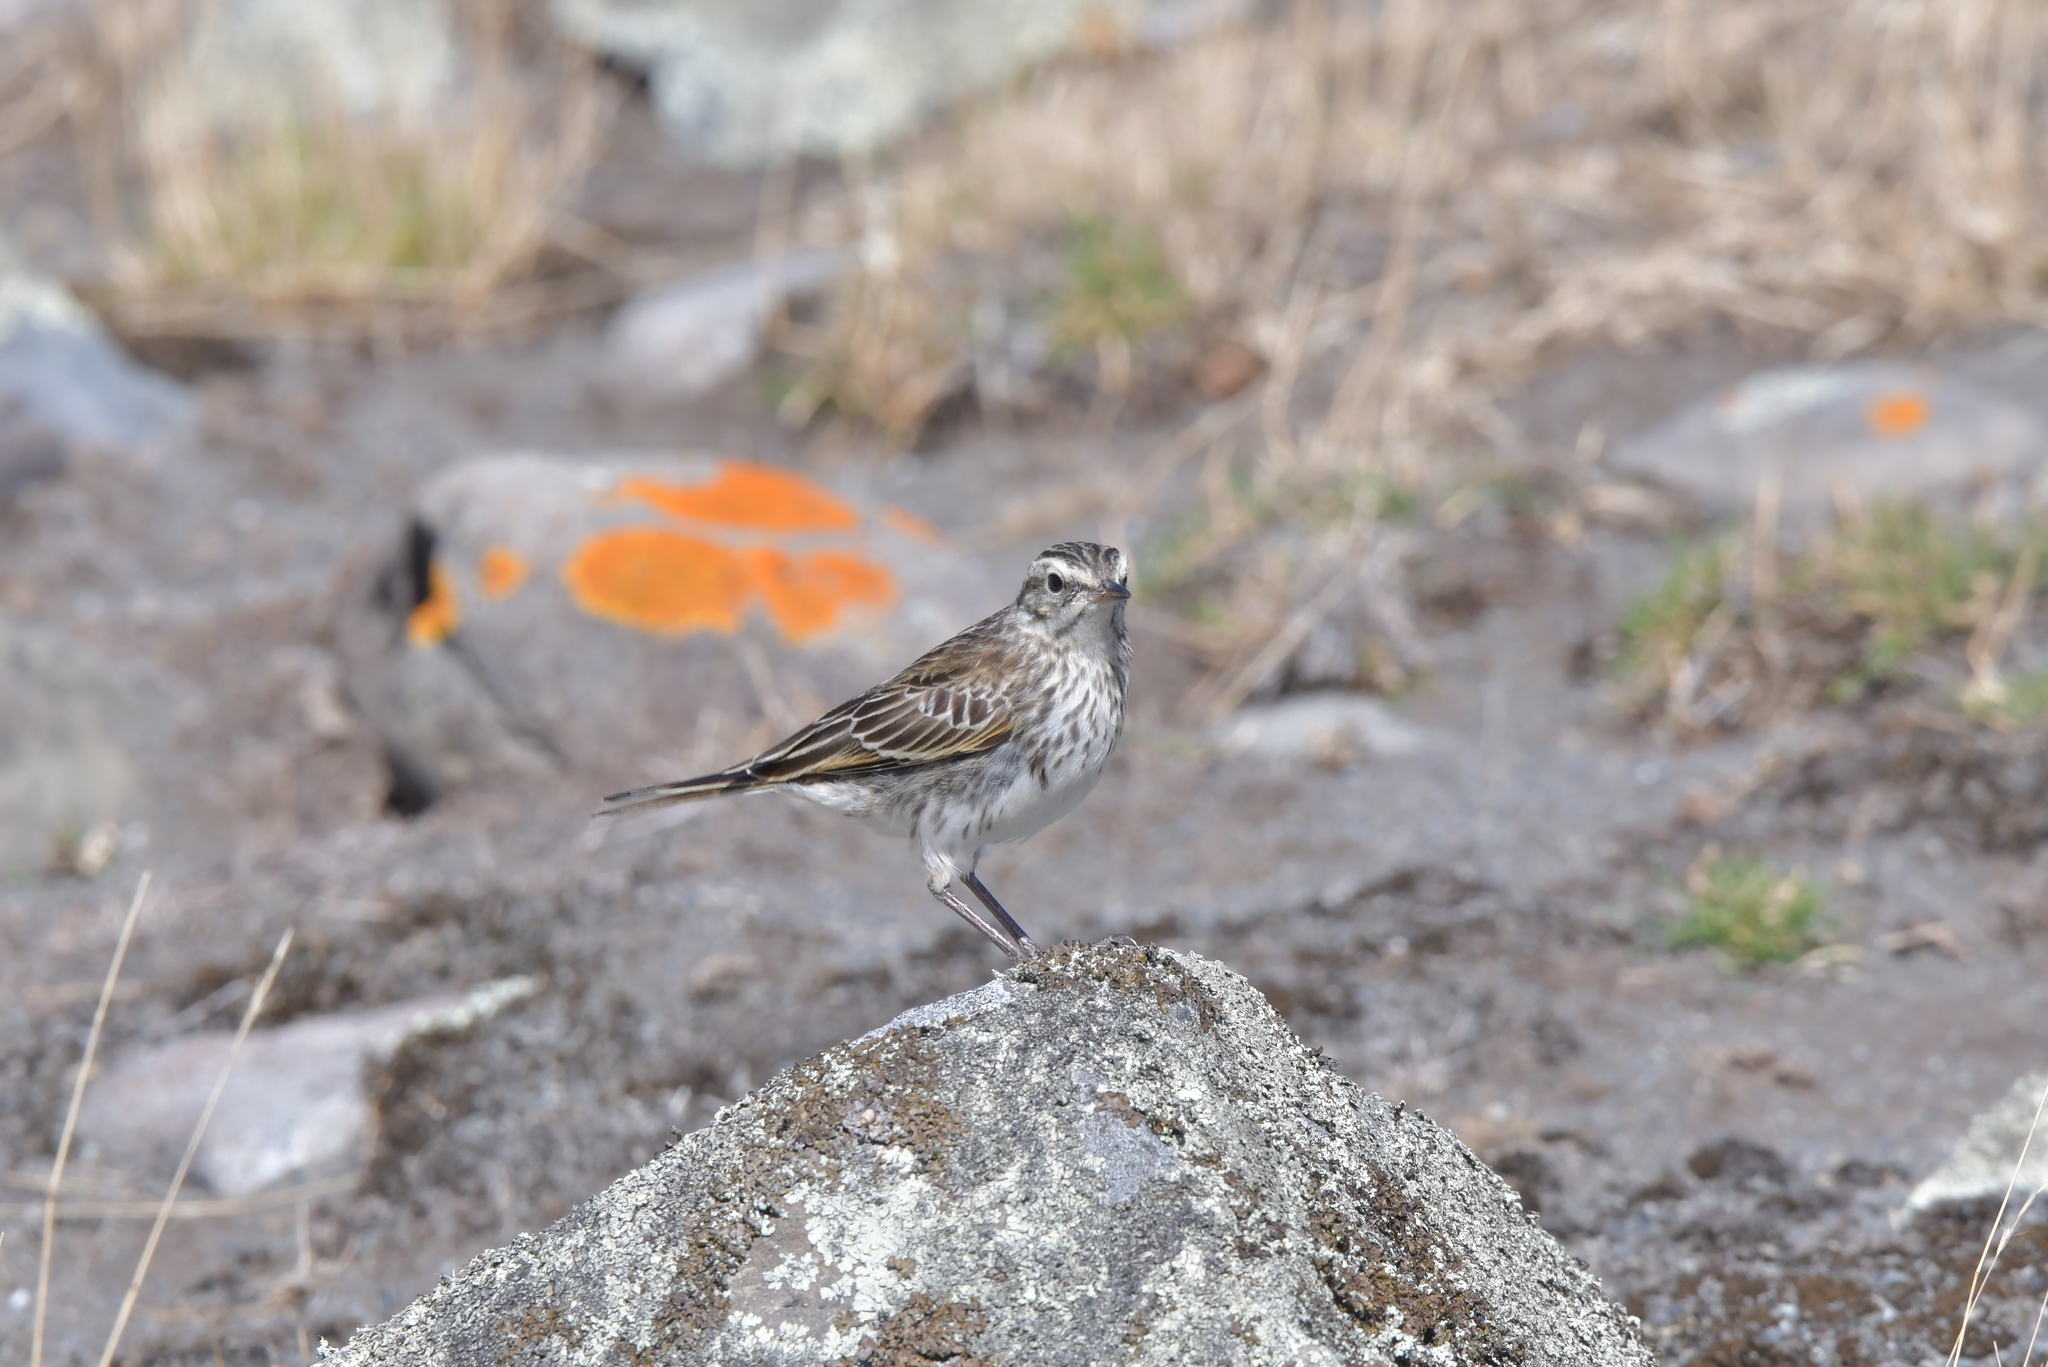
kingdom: Animalia
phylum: Chordata
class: Aves
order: Passeriformes
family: Motacillidae
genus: Anthus
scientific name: Anthus novaeseelandiae
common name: New zealand pipit
